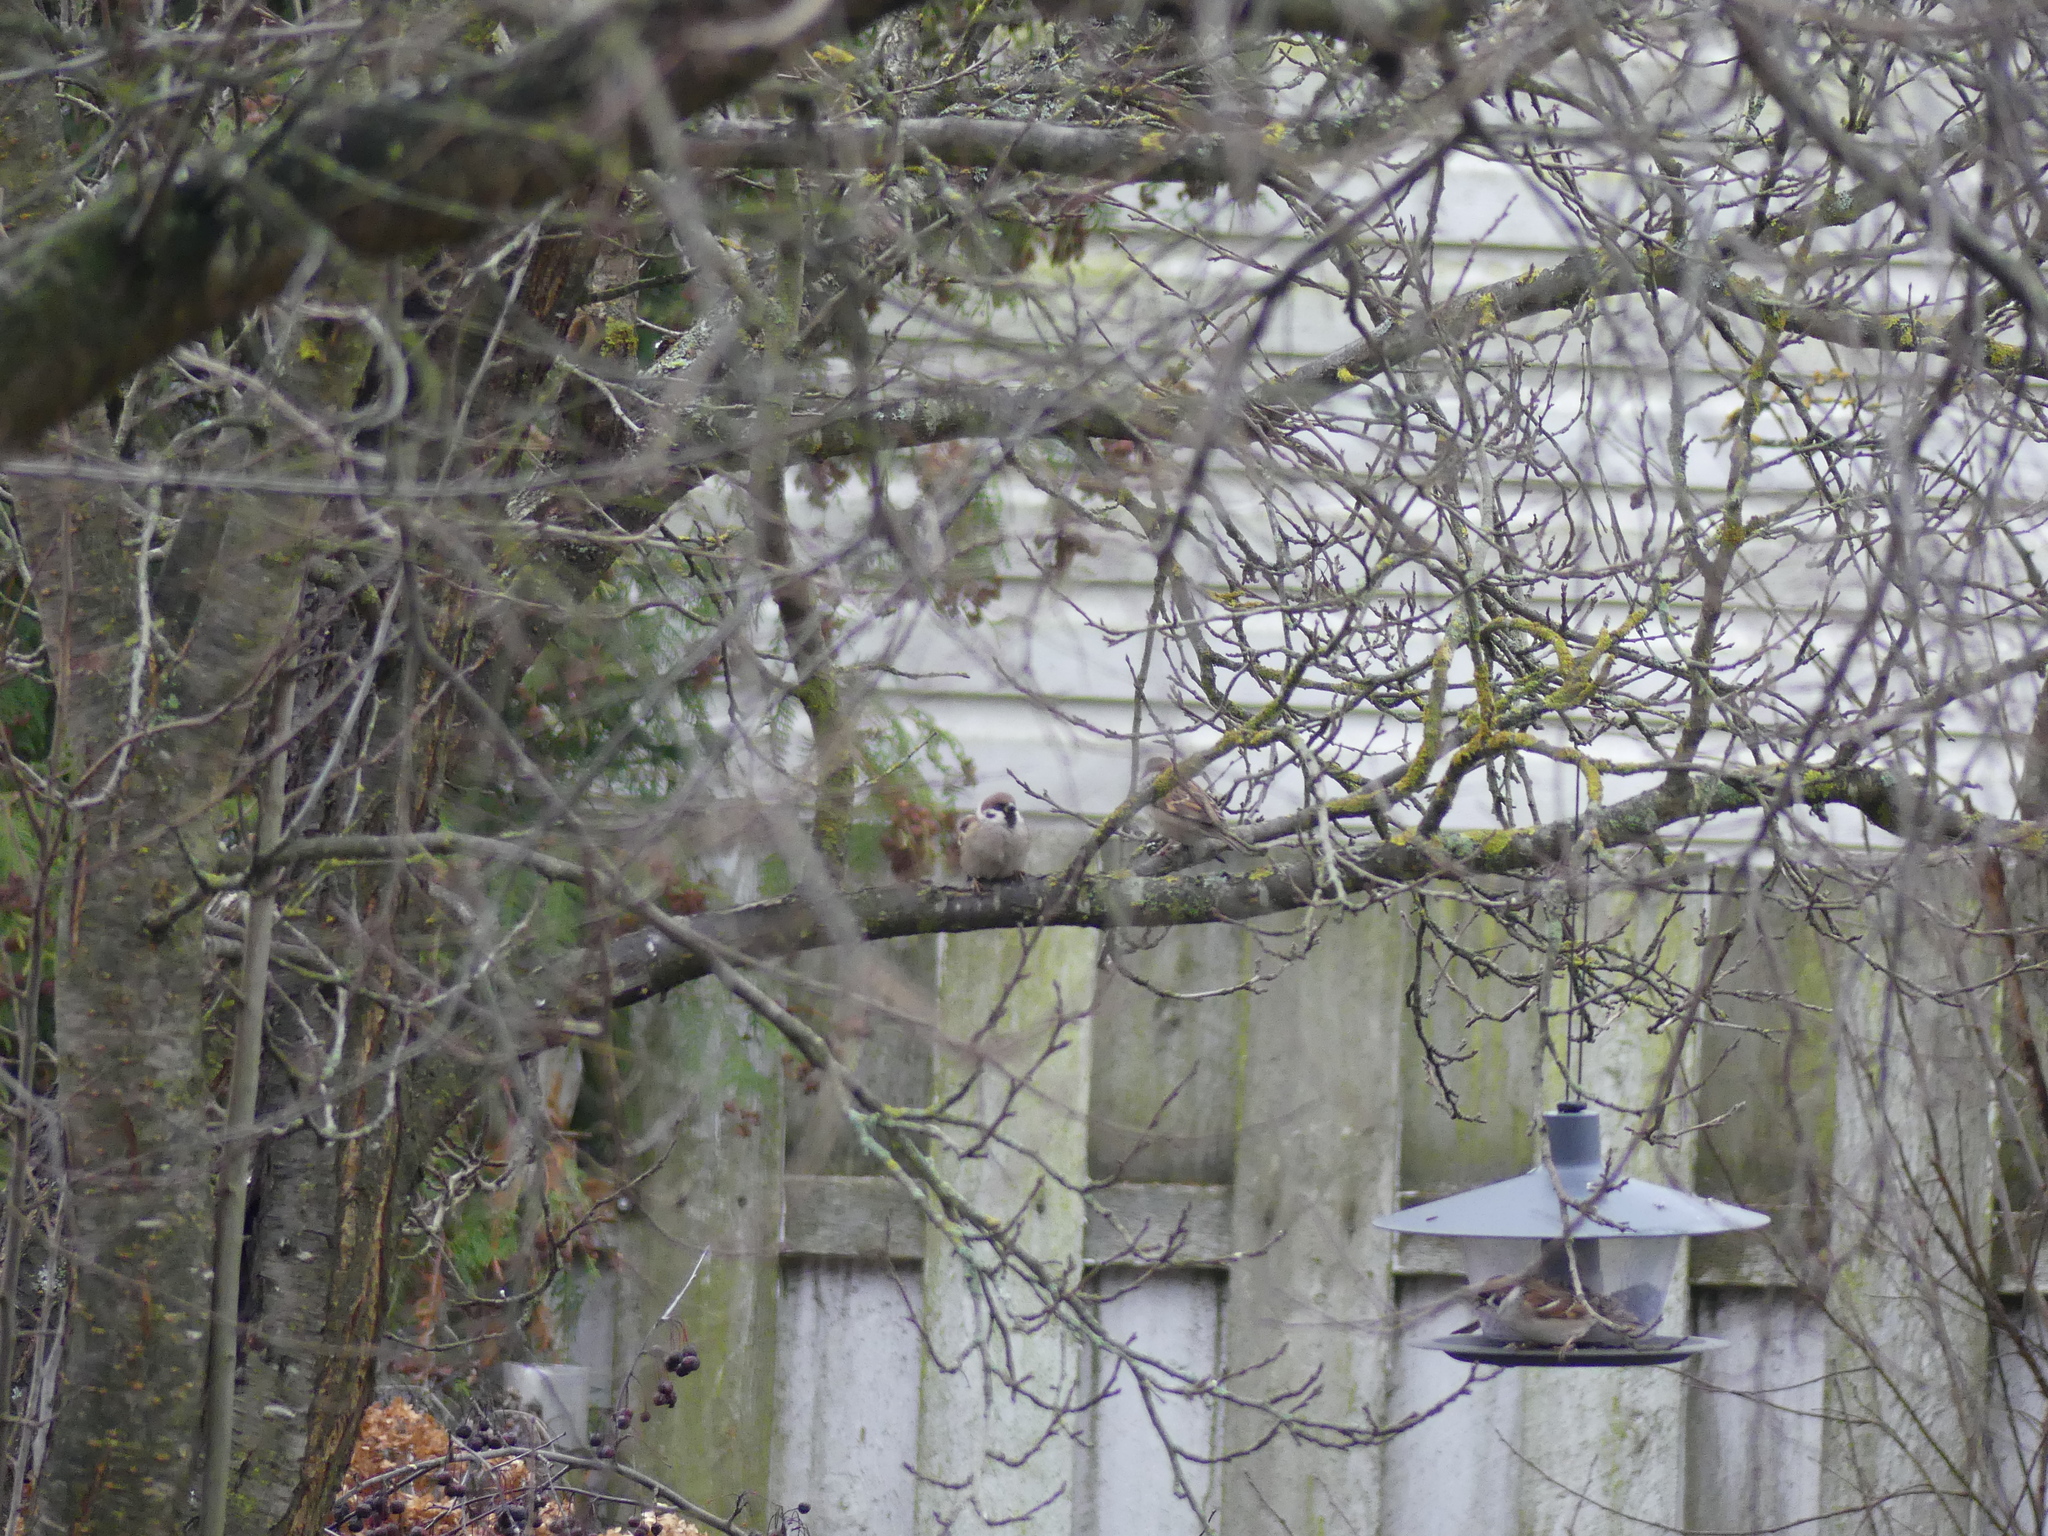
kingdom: Animalia
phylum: Chordata
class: Aves
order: Passeriformes
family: Passeridae
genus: Passer
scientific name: Passer montanus
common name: Eurasian tree sparrow
